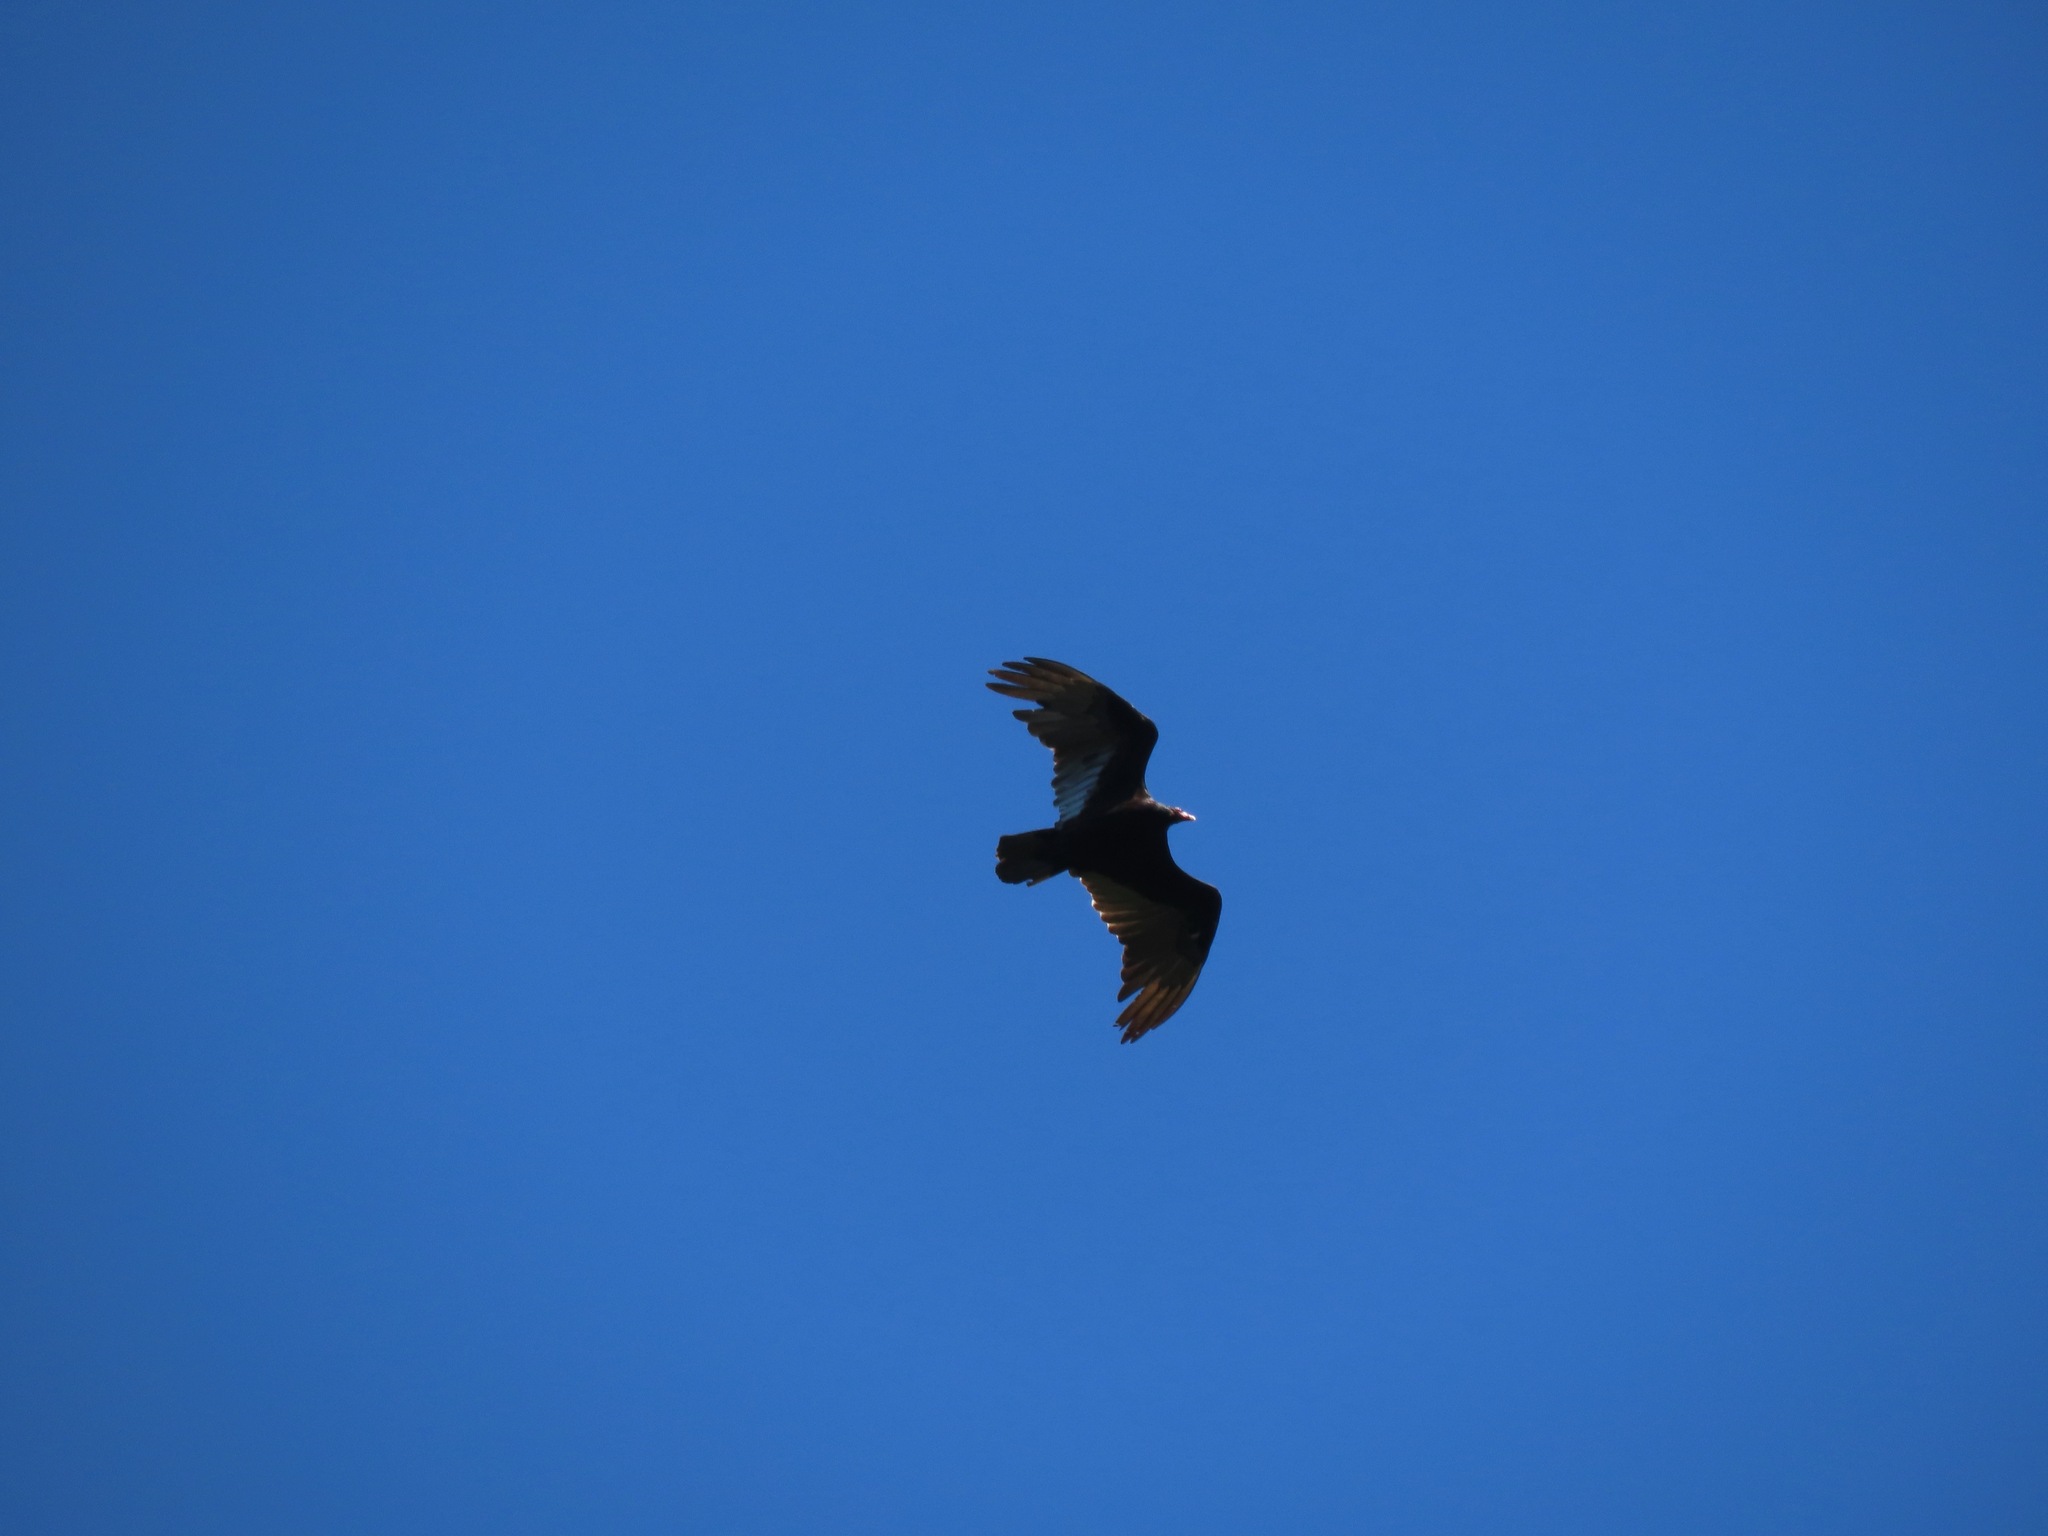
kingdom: Animalia
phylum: Chordata
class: Aves
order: Accipitriformes
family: Cathartidae
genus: Cathartes
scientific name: Cathartes aura
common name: Turkey vulture
